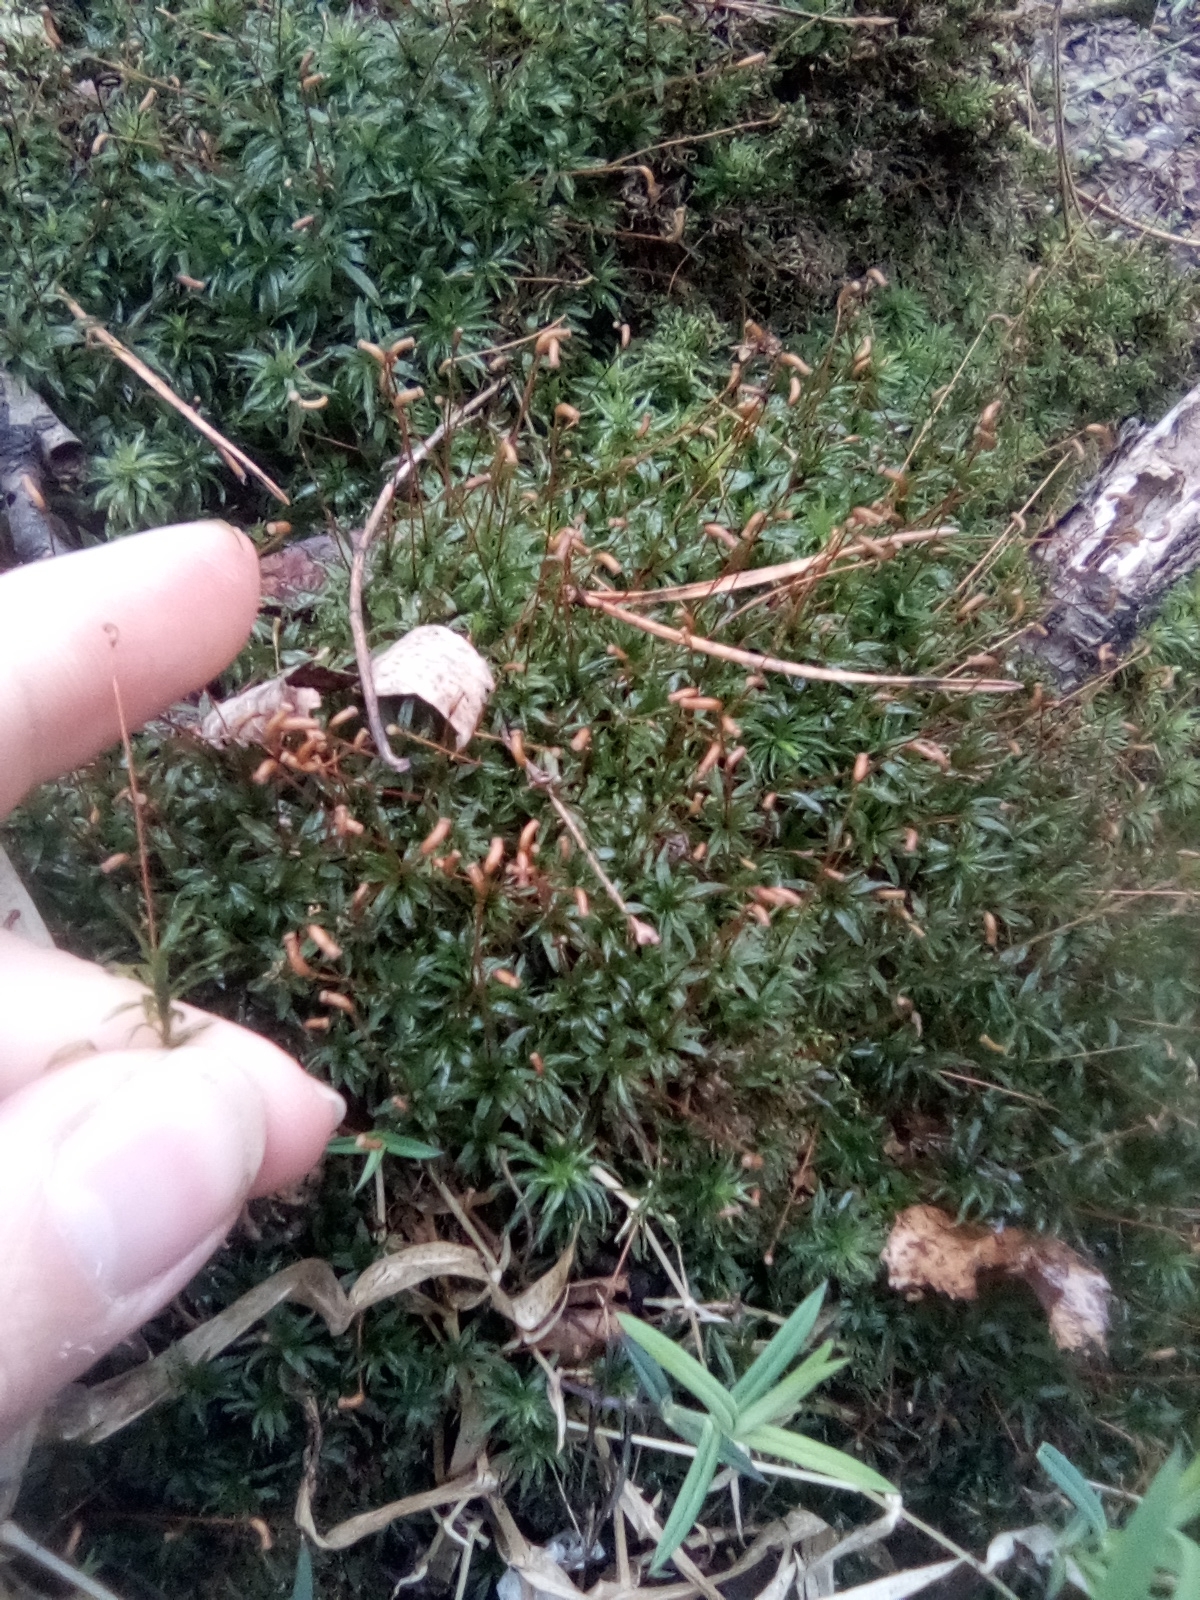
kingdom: Plantae
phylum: Bryophyta
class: Polytrichopsida
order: Polytrichales
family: Polytrichaceae
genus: Atrichum
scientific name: Atrichum undulatum
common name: Common smoothcap
